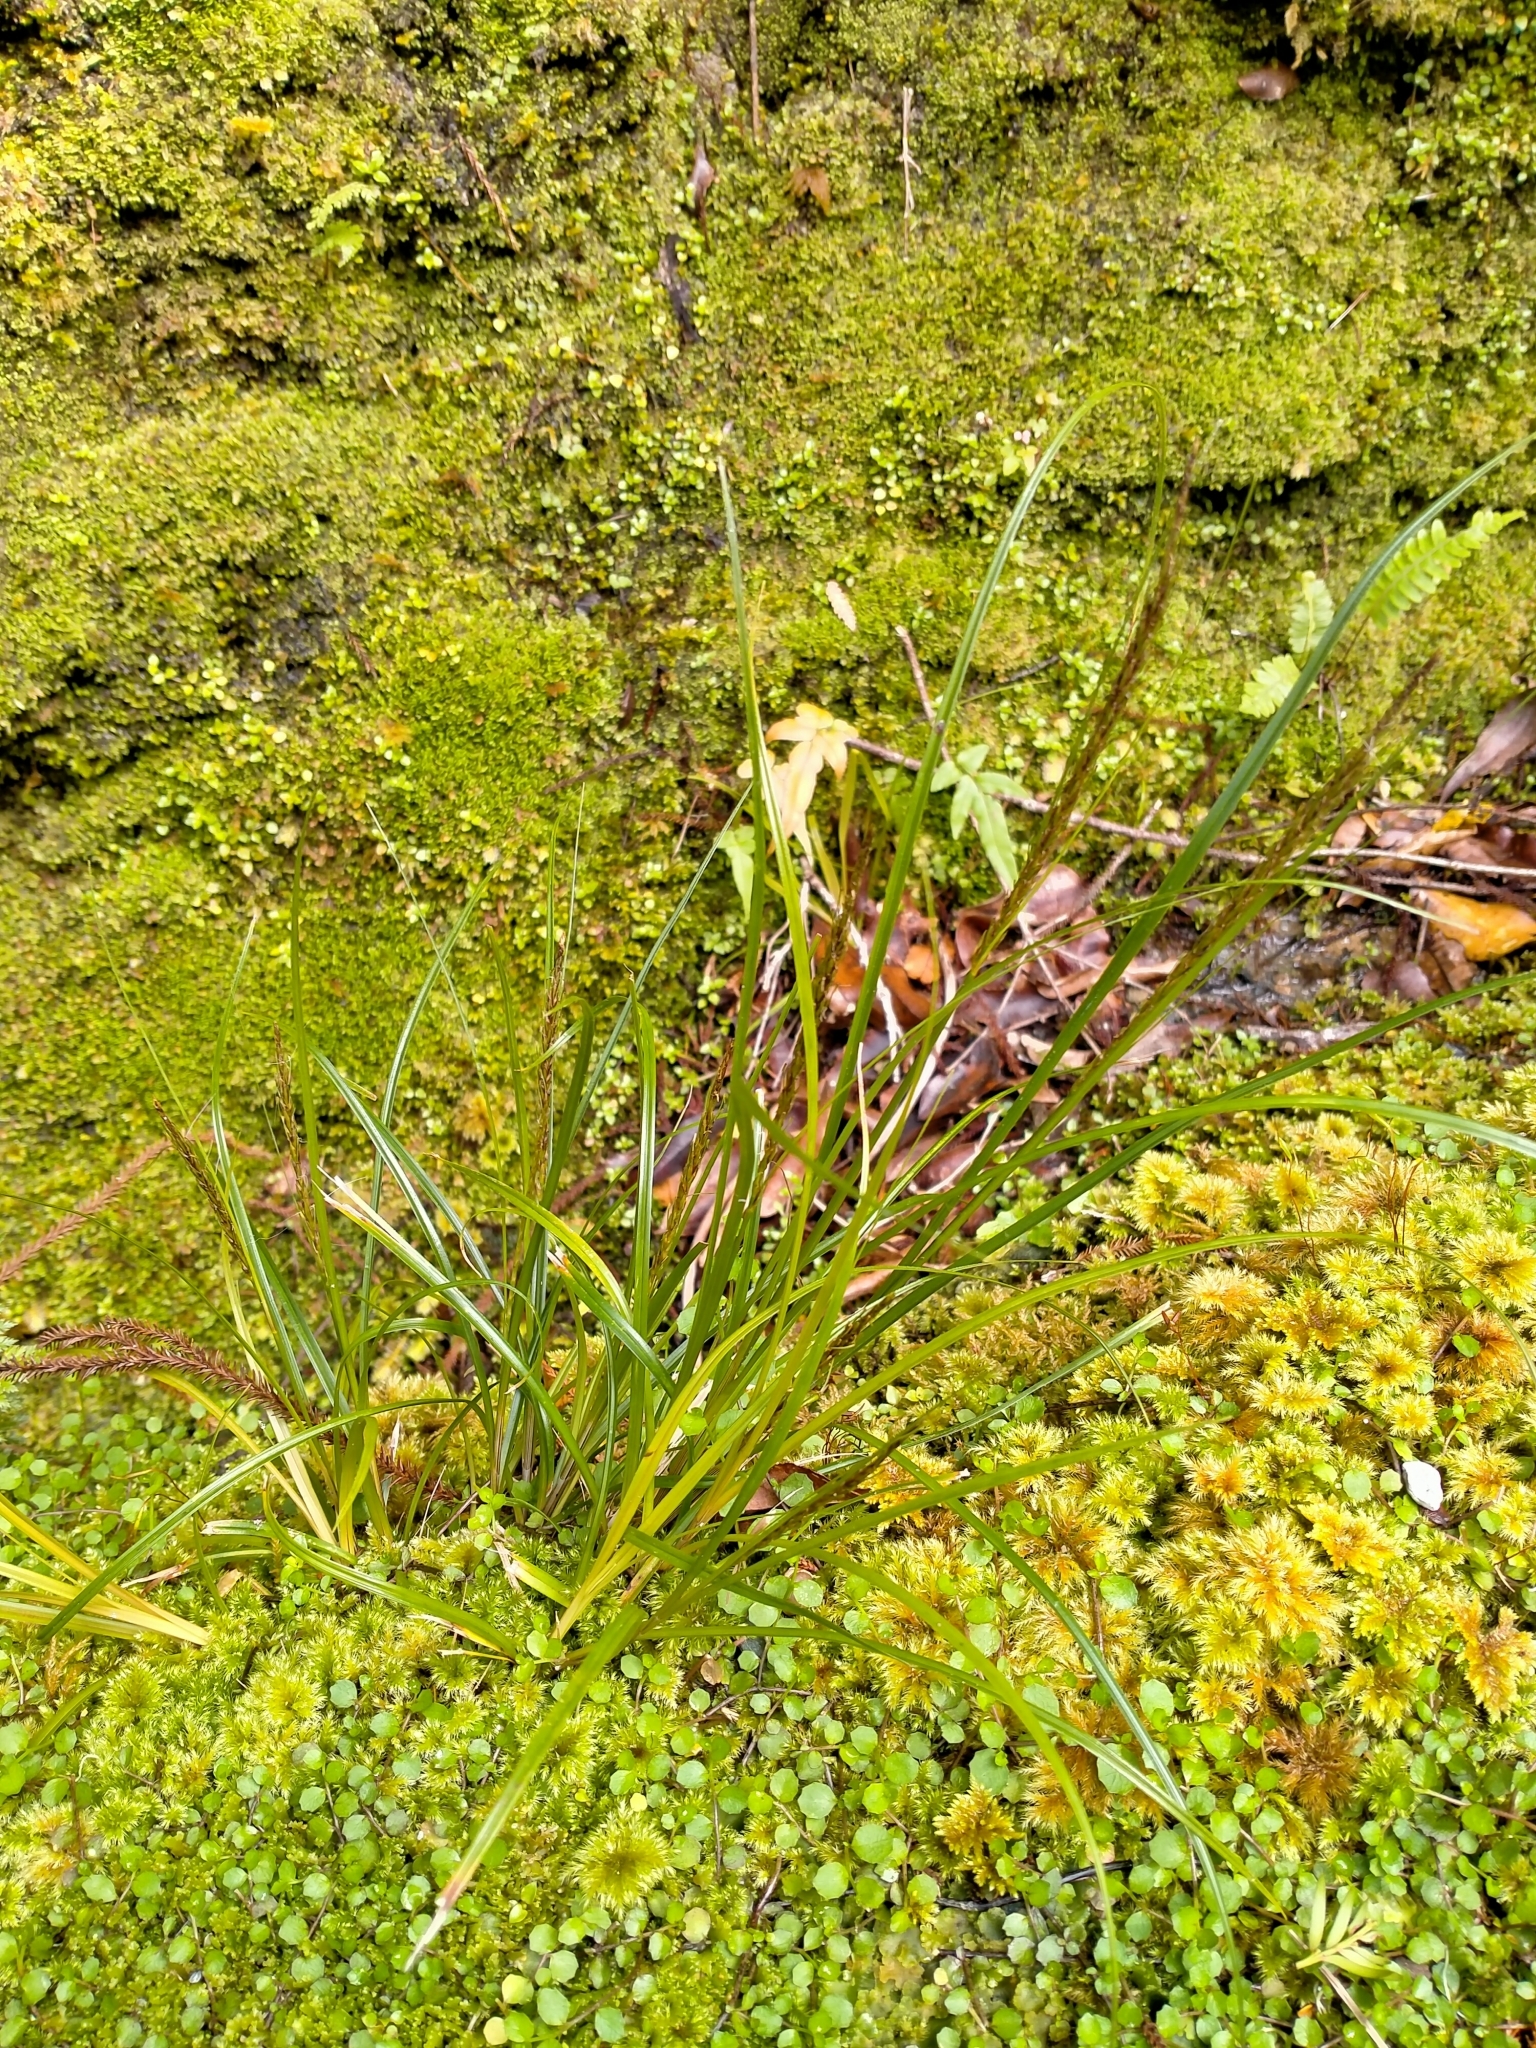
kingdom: Plantae
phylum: Tracheophyta
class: Liliopsida
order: Poales
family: Cyperaceae
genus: Carex
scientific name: Carex uncinata
